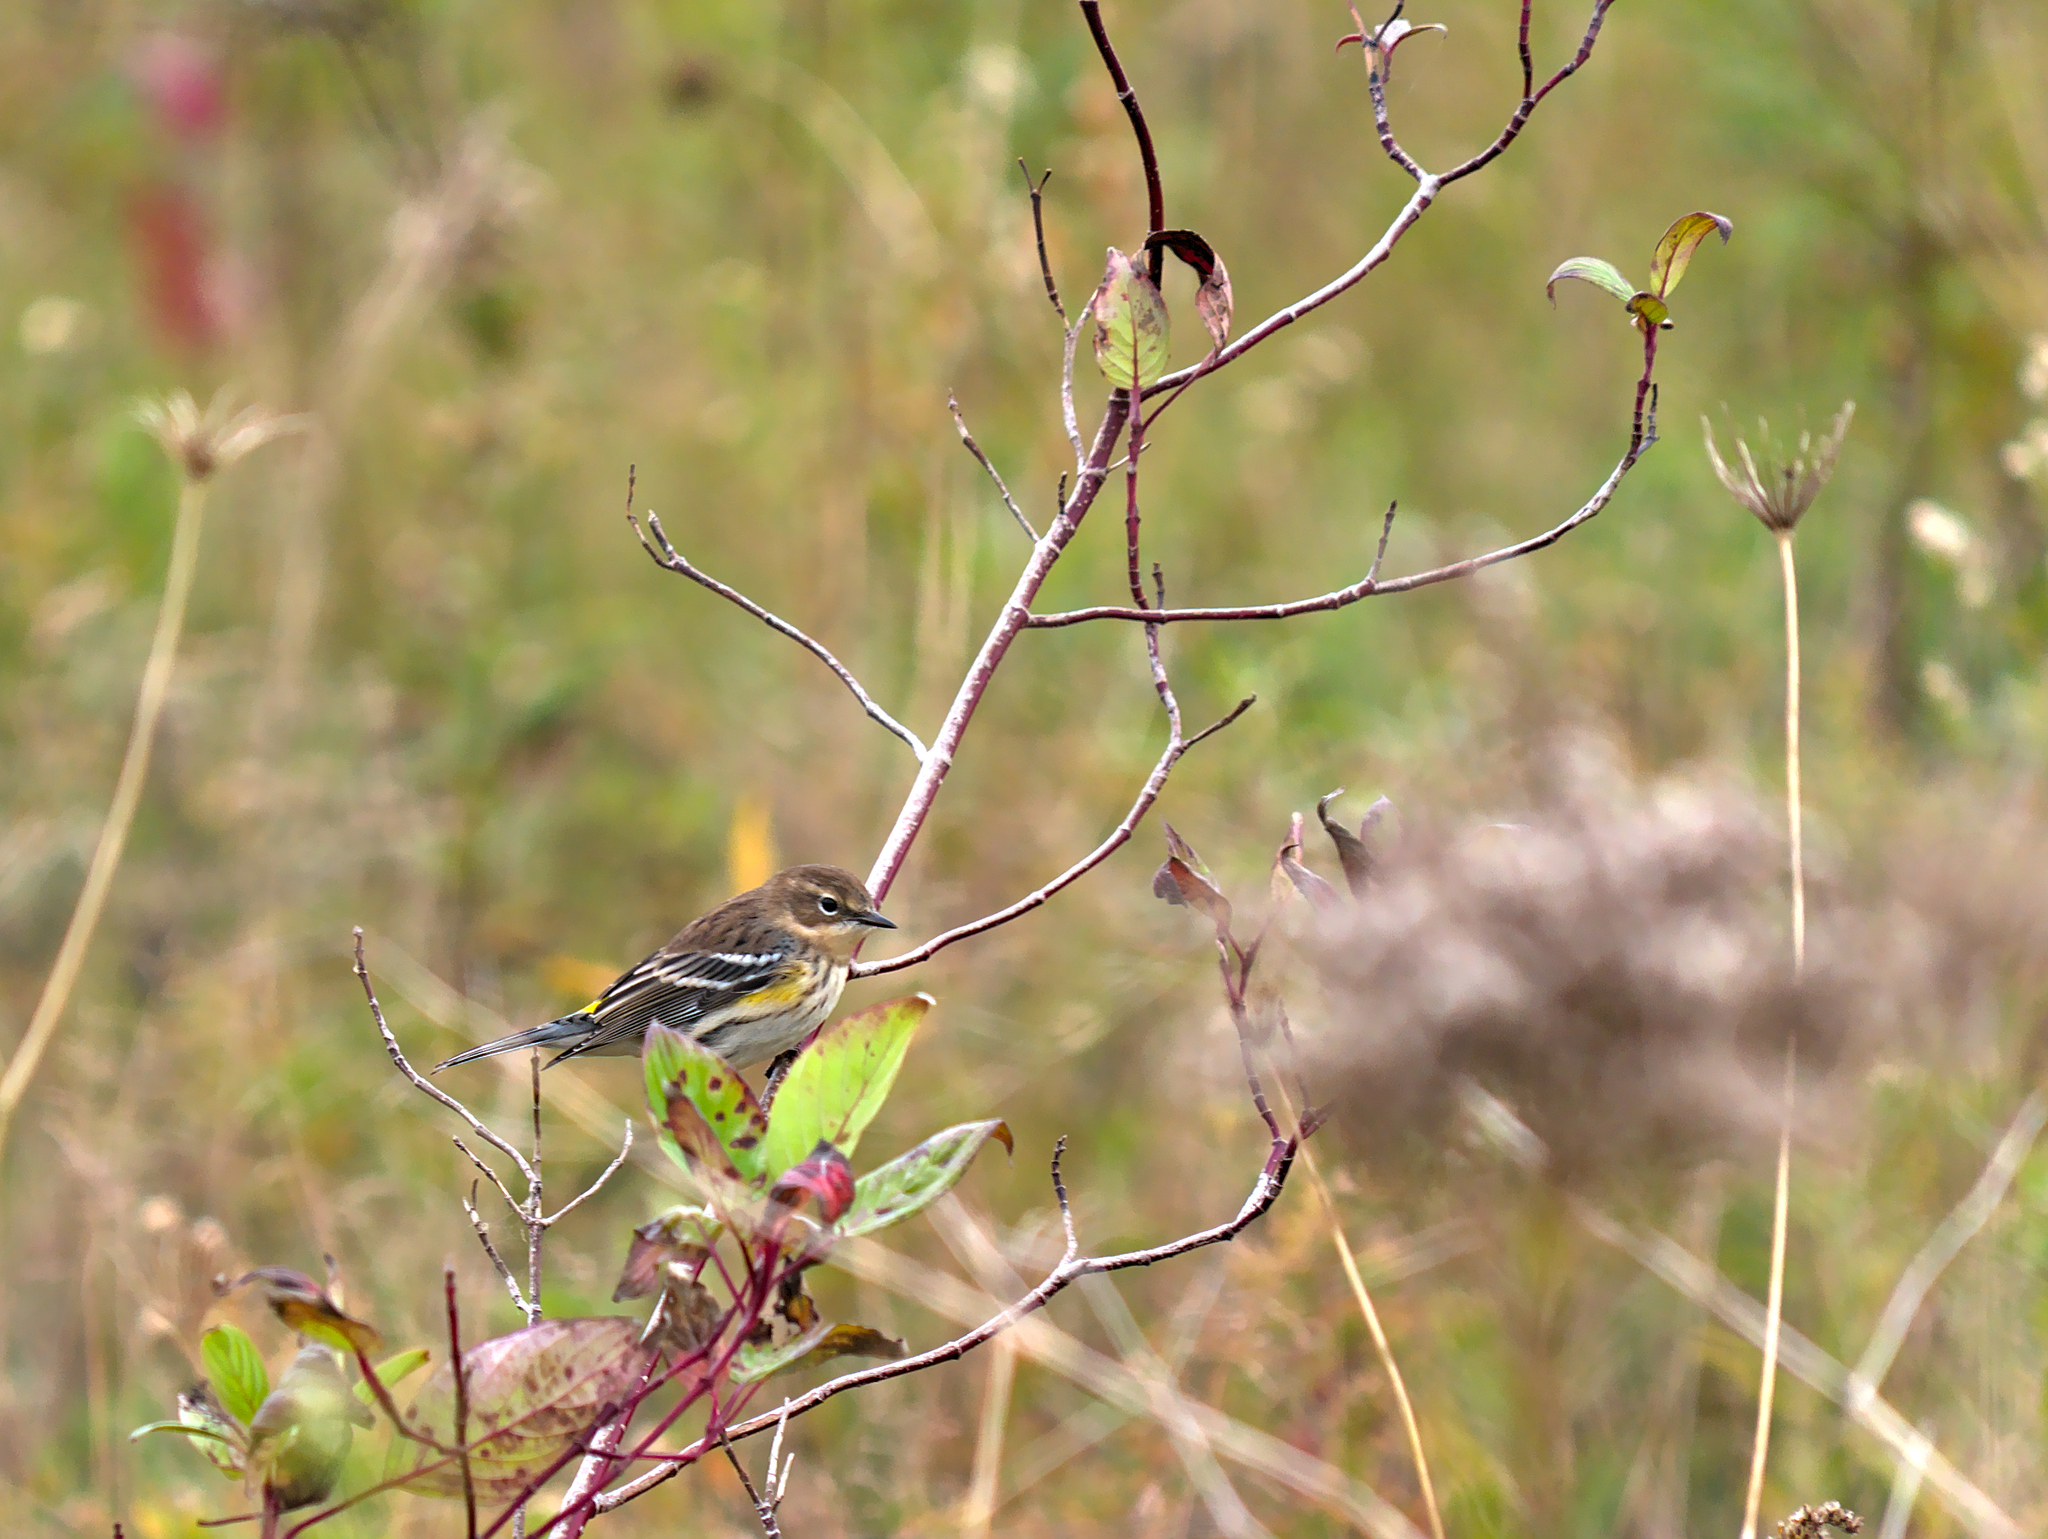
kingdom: Animalia
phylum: Chordata
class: Aves
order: Passeriformes
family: Parulidae
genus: Setophaga
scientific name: Setophaga coronata
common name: Myrtle warbler
